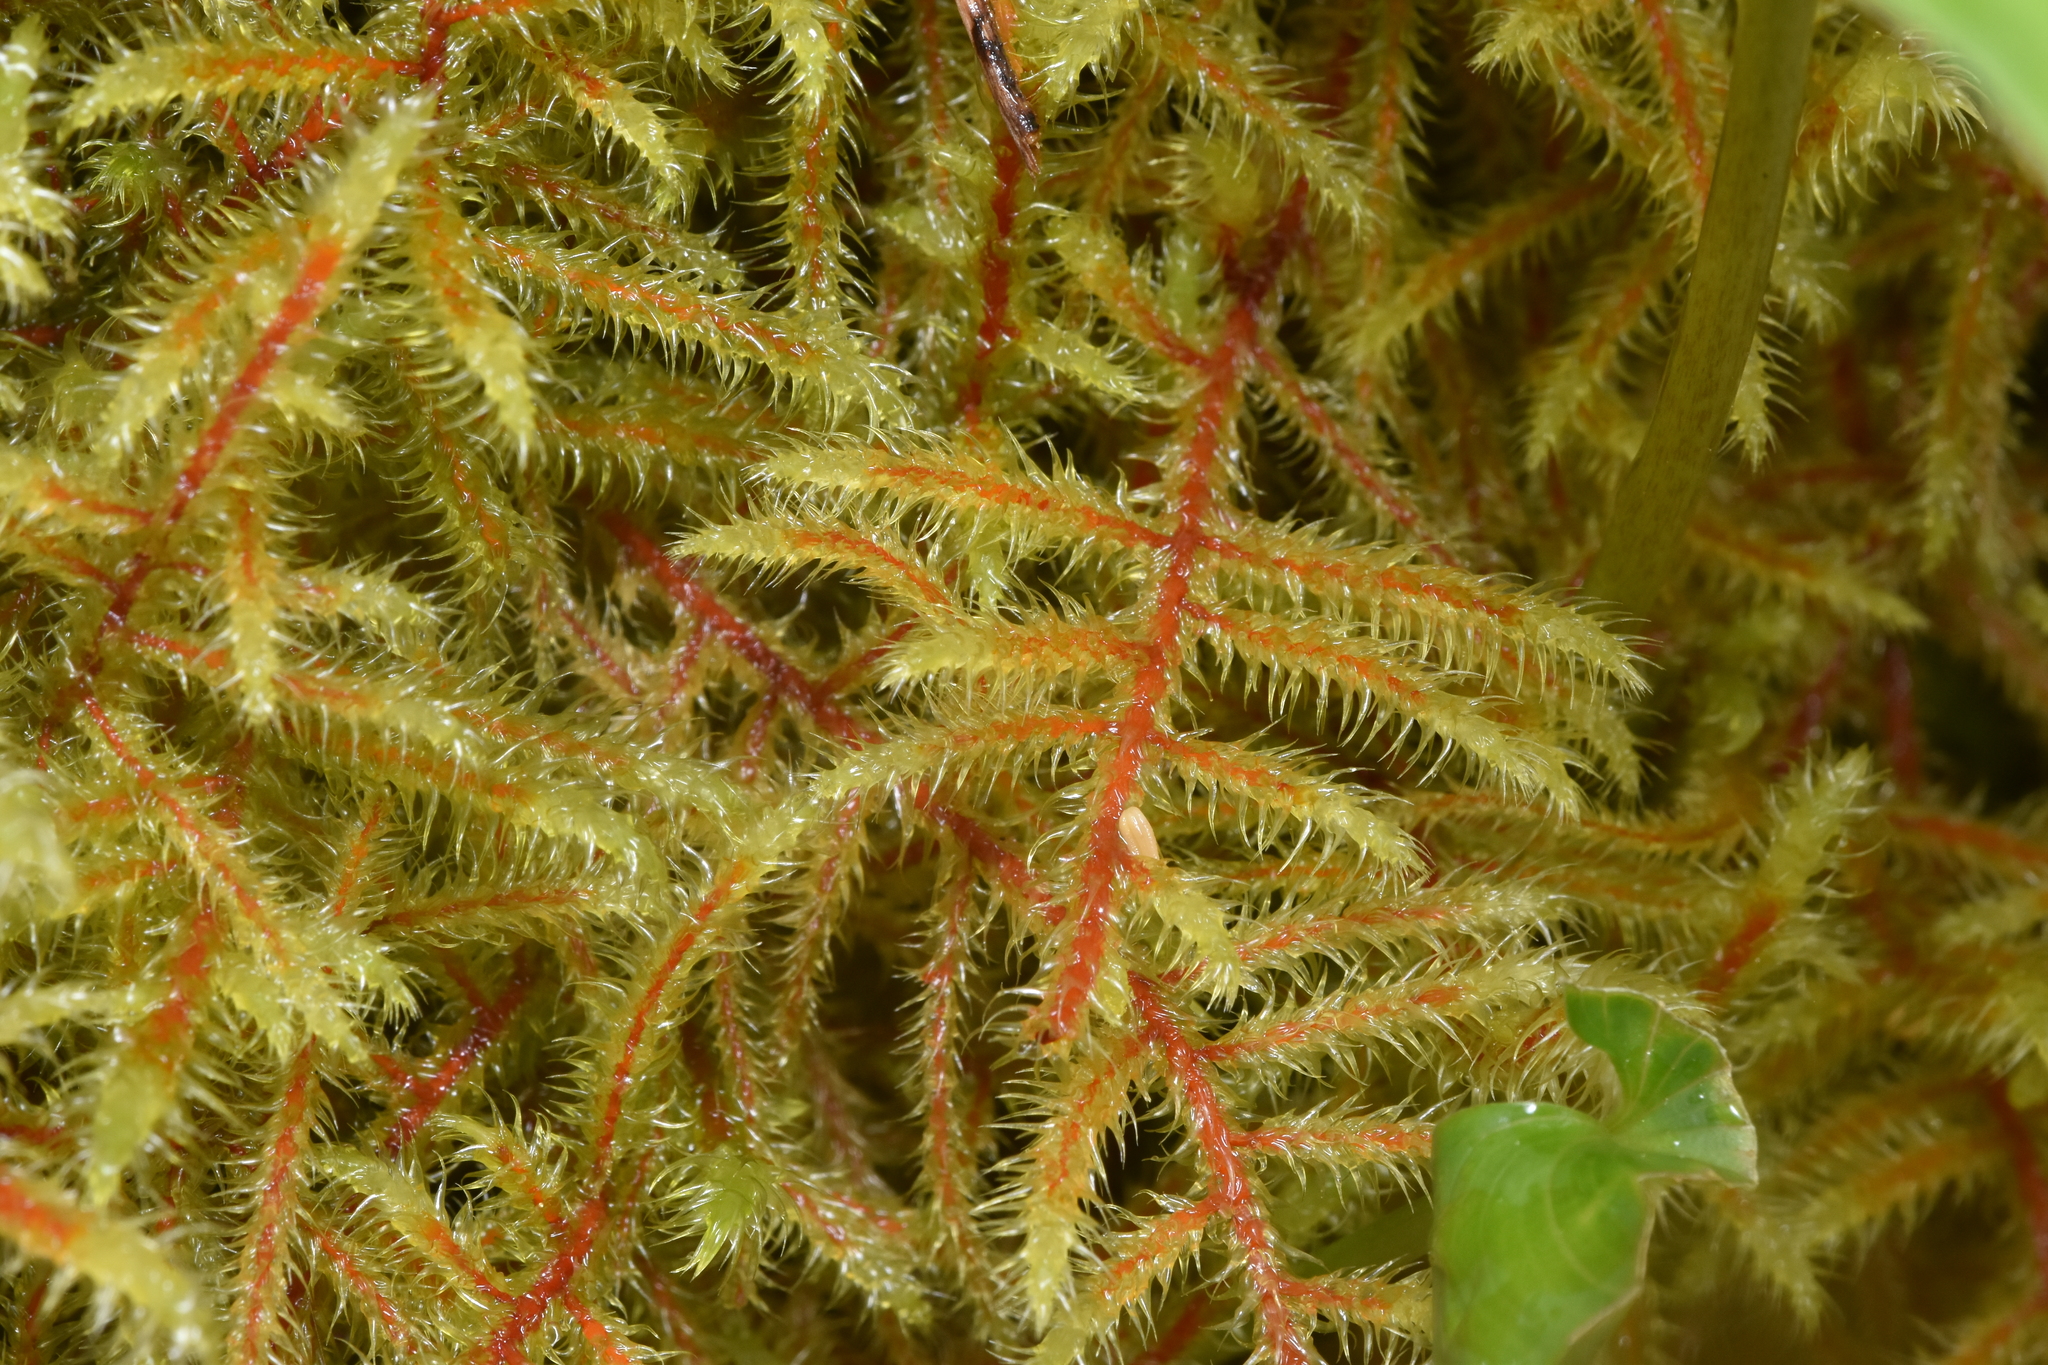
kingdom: Plantae
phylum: Bryophyta
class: Bryopsida
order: Hypnales
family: Hylocomiaceae
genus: Rhytidiadelphus
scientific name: Rhytidiadelphus loreus
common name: Lanky moss
